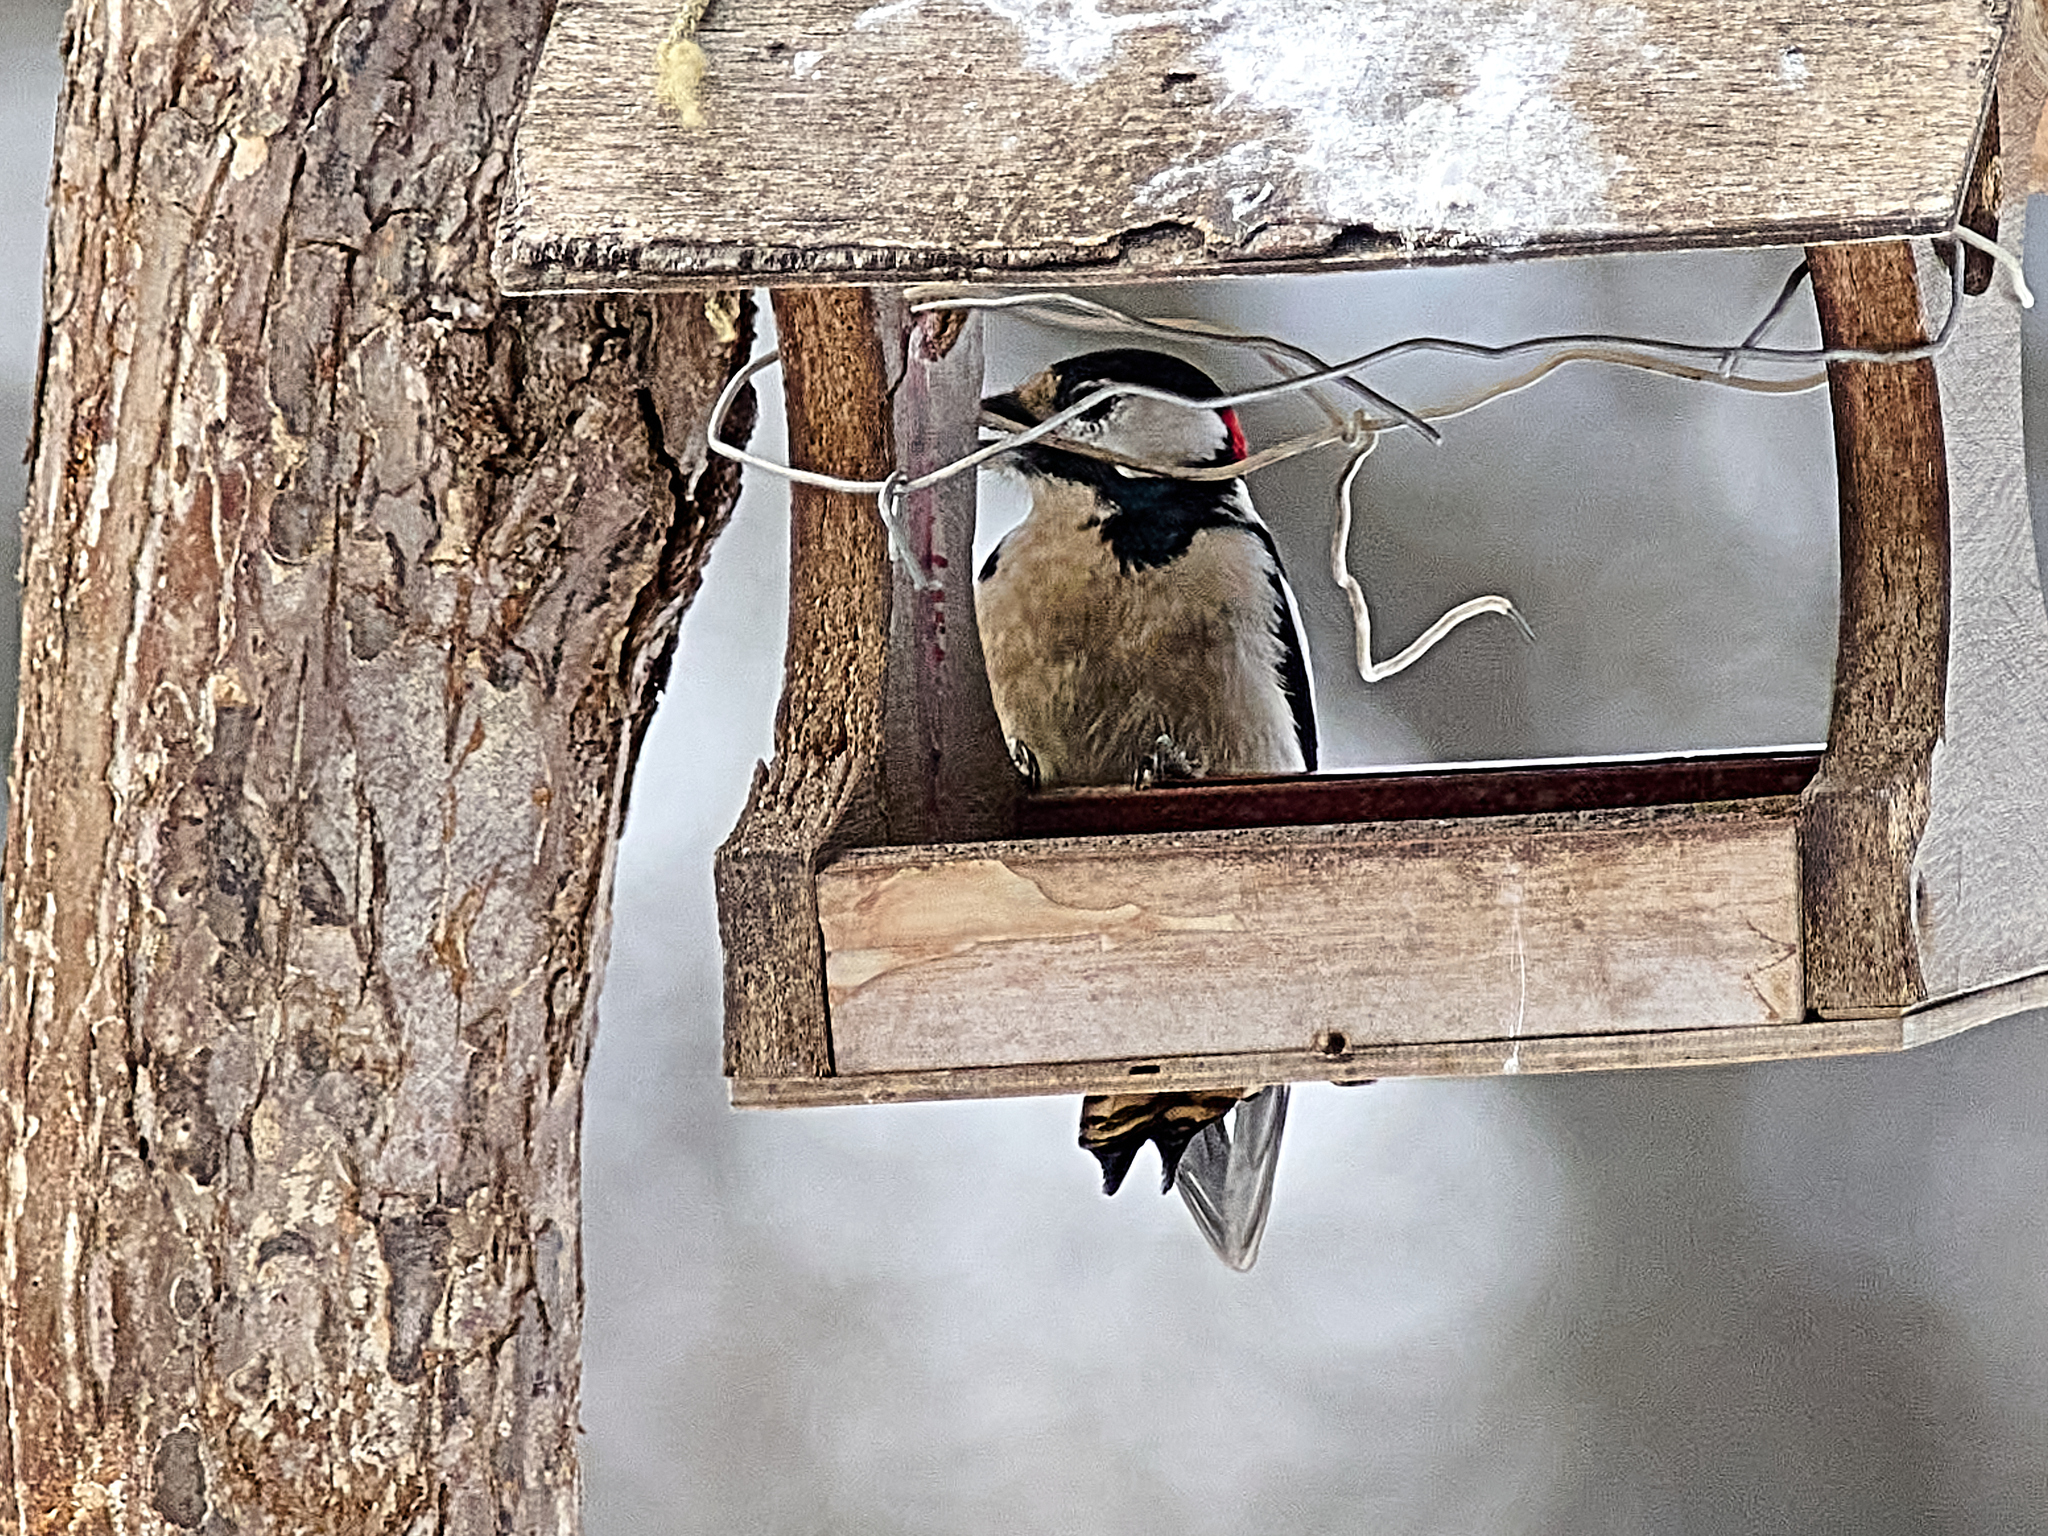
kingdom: Animalia
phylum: Chordata
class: Aves
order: Piciformes
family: Picidae
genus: Dendrocopos
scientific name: Dendrocopos major
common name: Great spotted woodpecker
